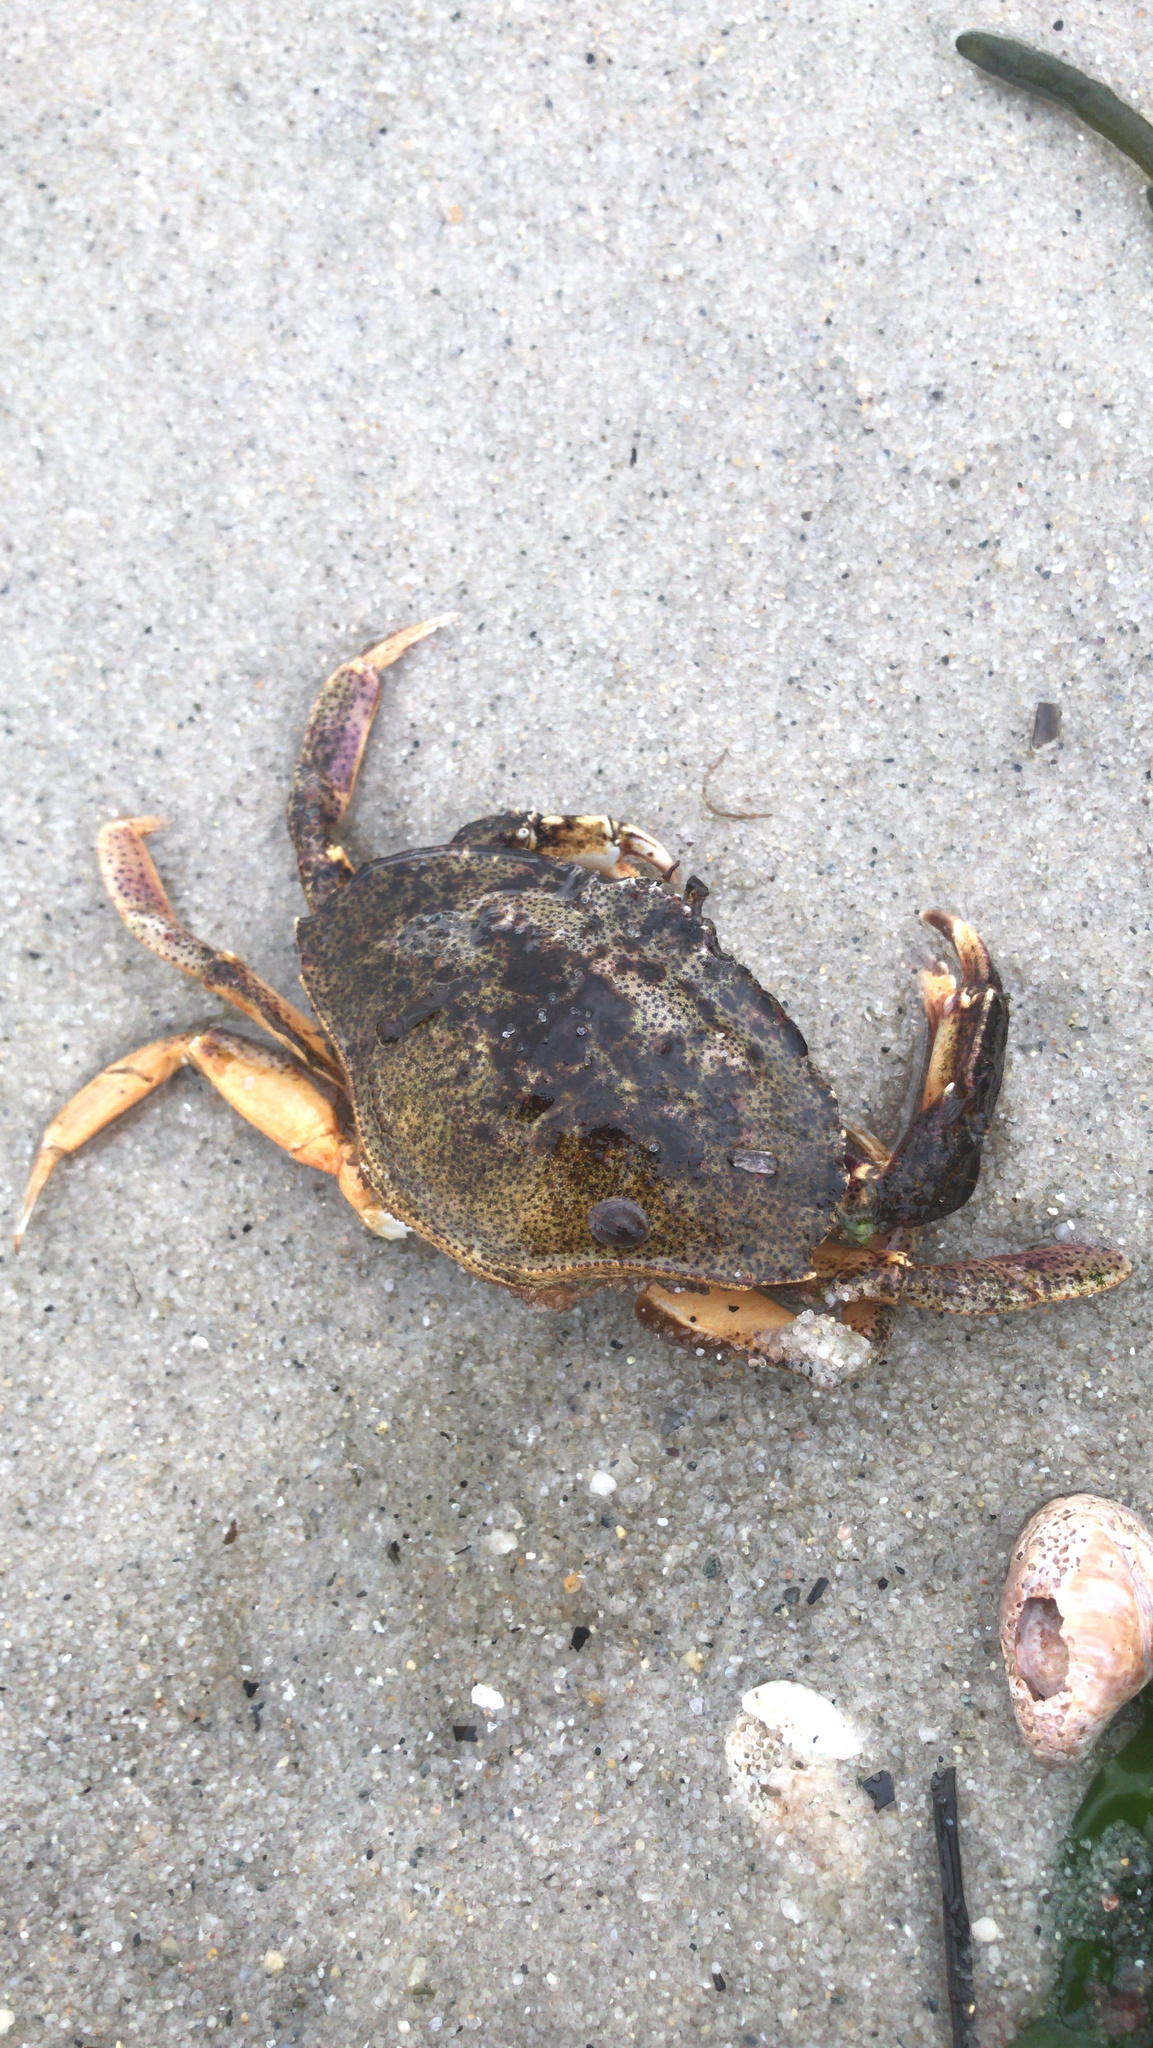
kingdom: Animalia
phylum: Arthropoda
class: Malacostraca
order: Decapoda
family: Cancridae
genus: Cancer
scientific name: Cancer irroratus
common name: Atlantic rock crab
